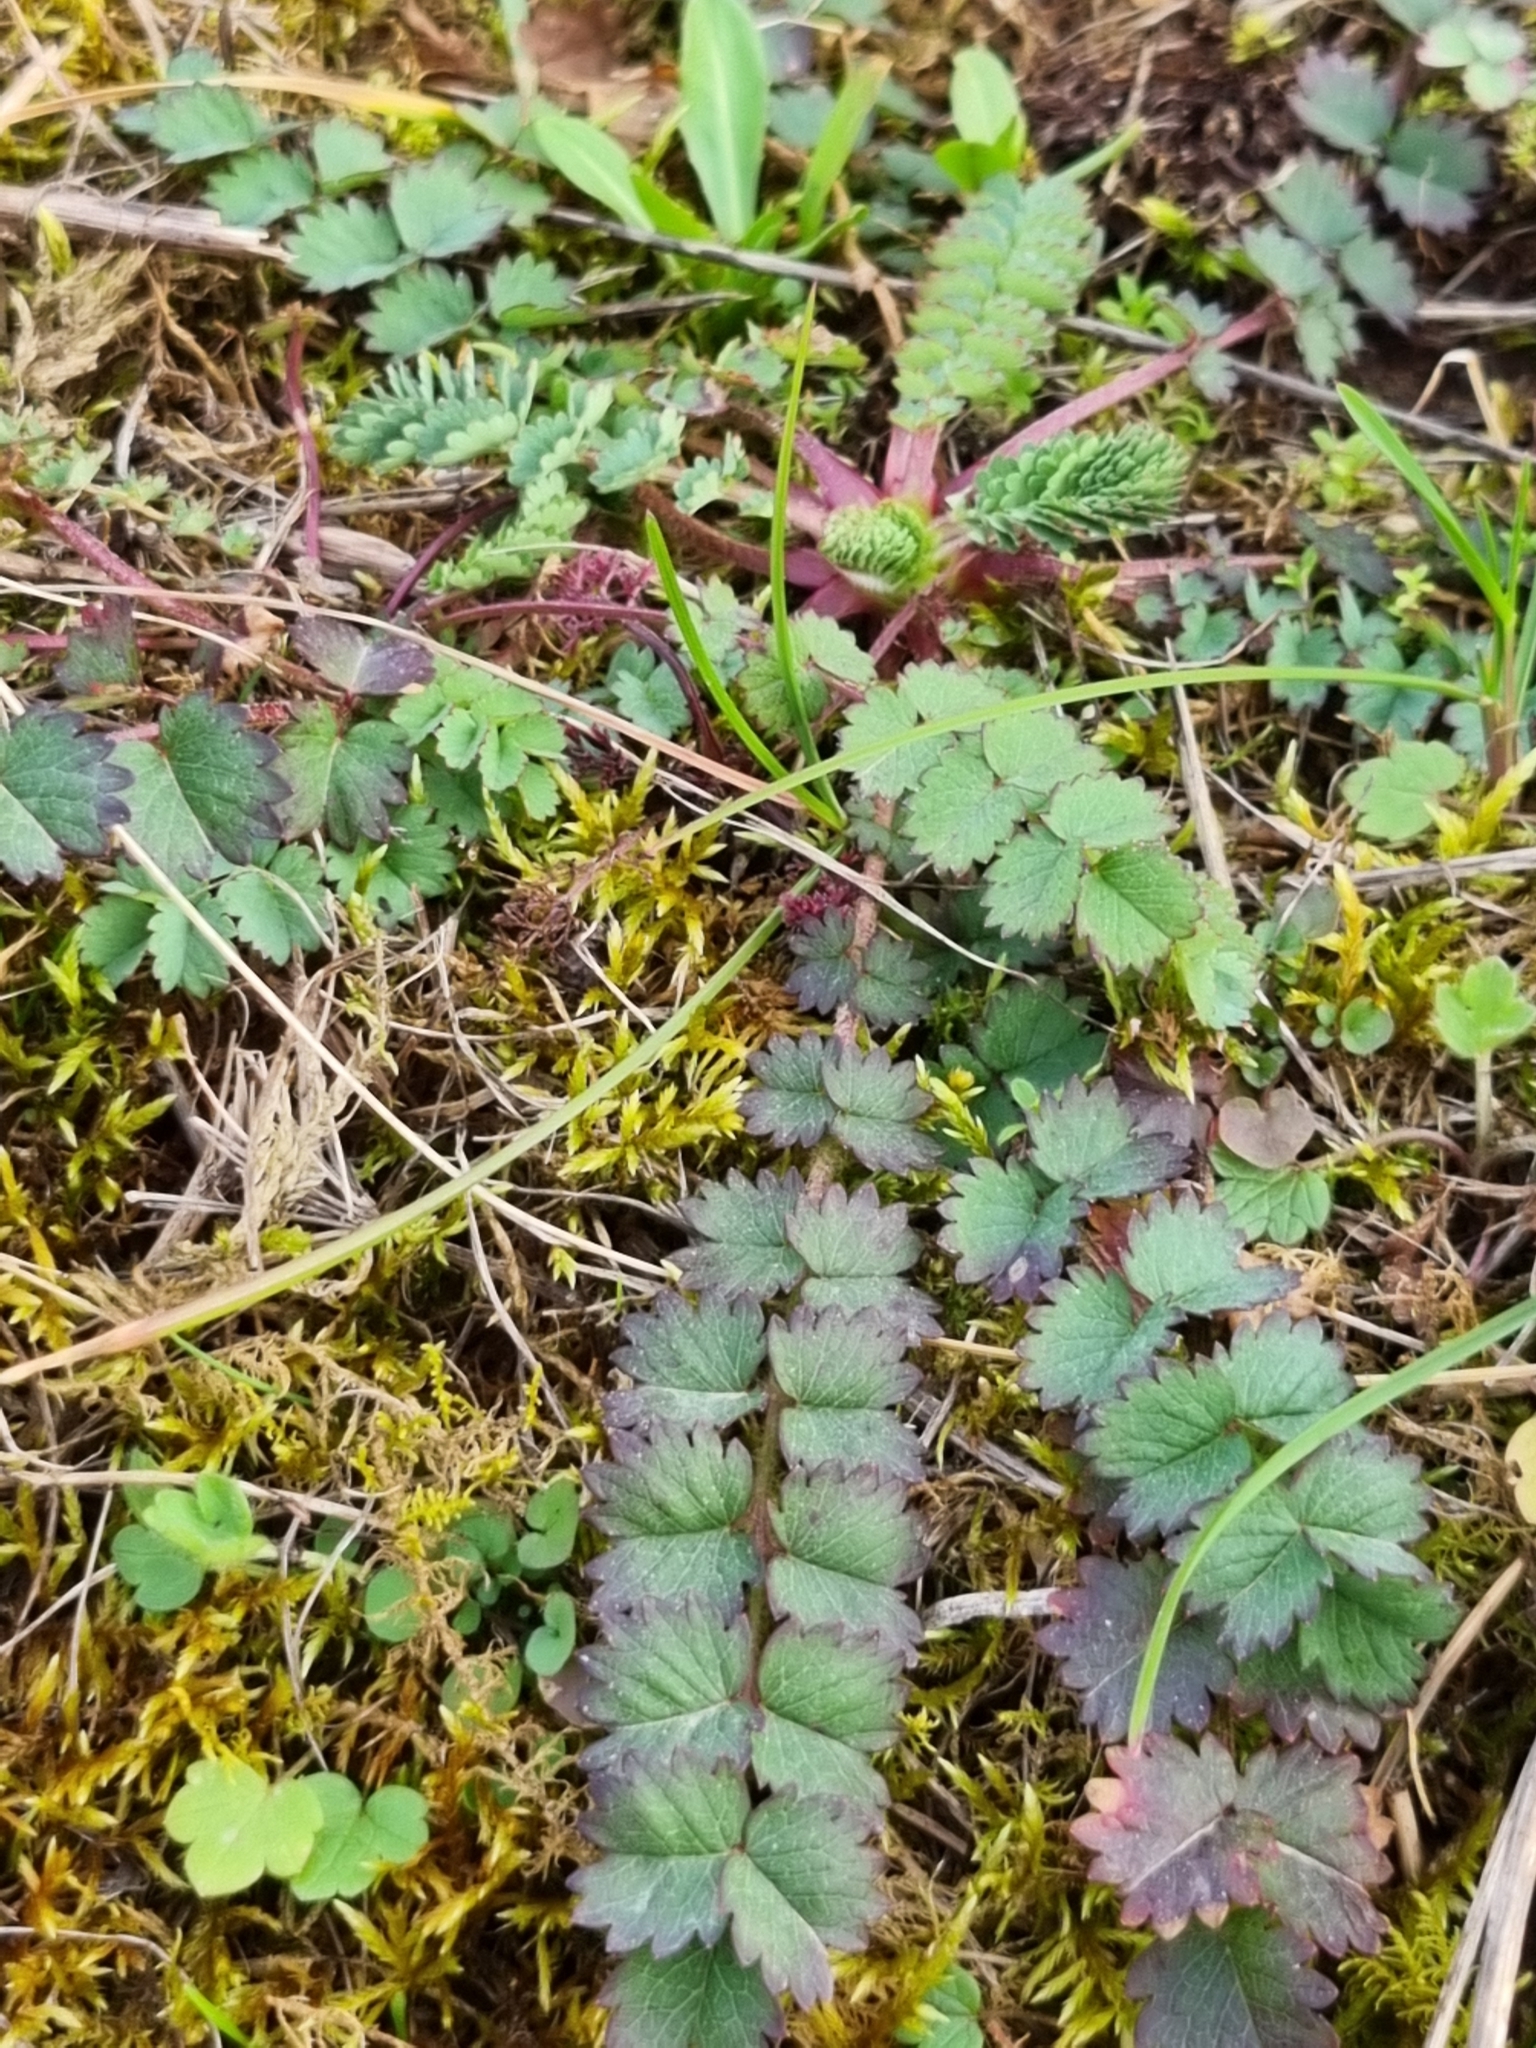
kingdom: Plantae
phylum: Tracheophyta
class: Magnoliopsida
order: Rosales
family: Rosaceae
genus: Poterium
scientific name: Poterium sanguisorba
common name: Salad burnet
